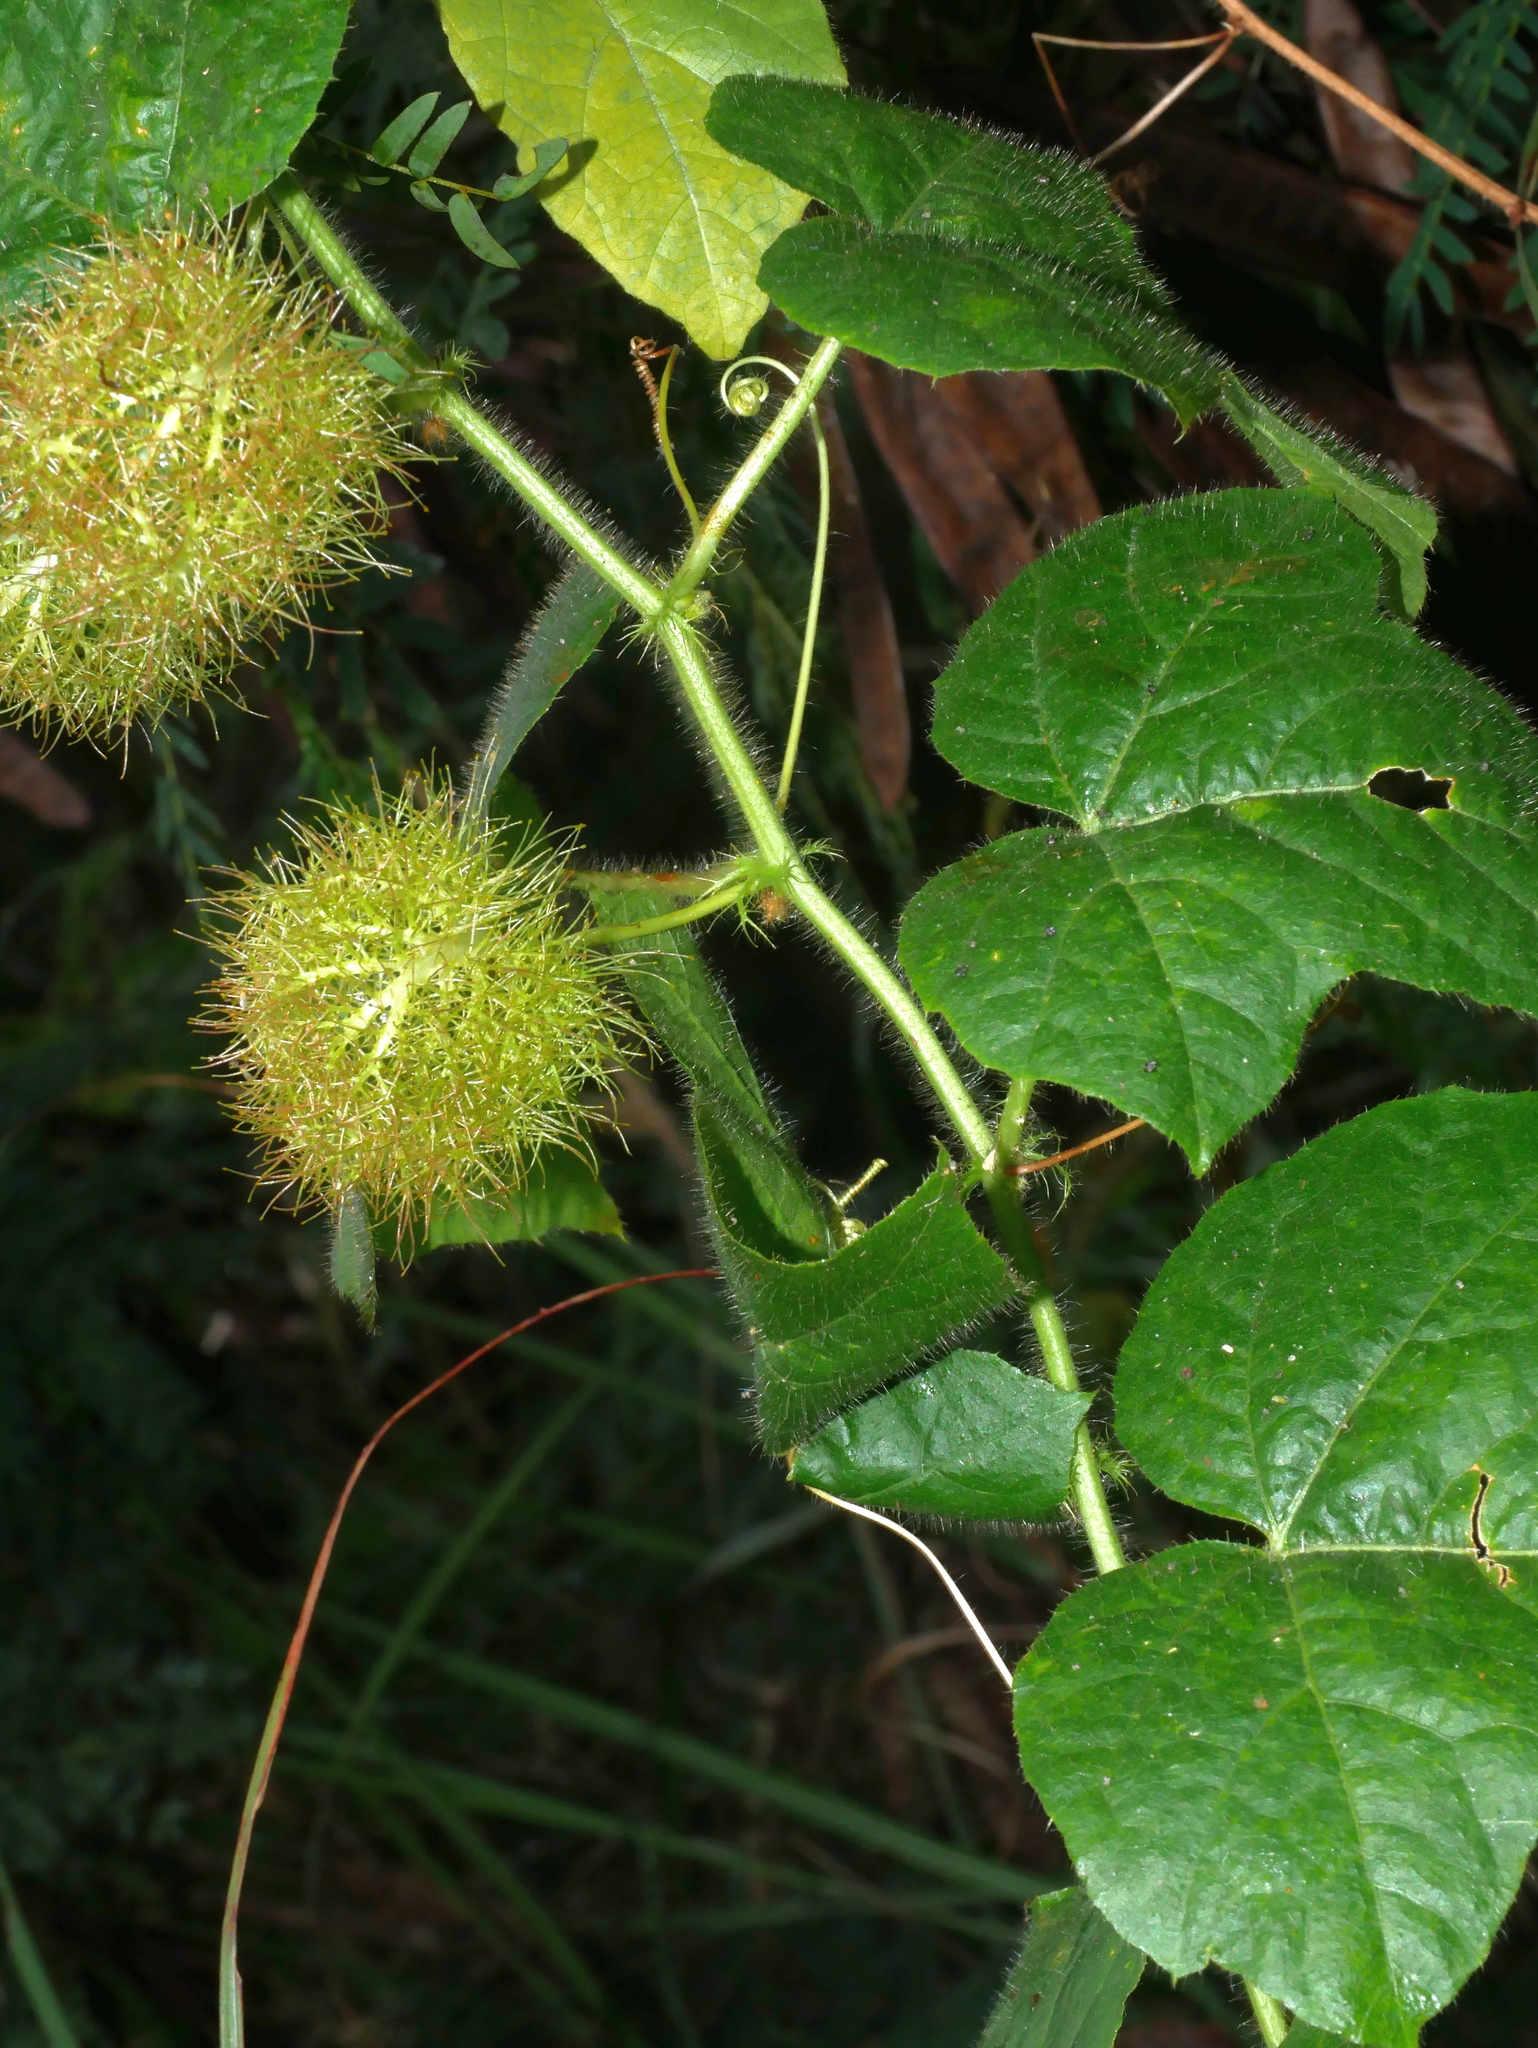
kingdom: Plantae
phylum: Tracheophyta
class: Magnoliopsida
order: Malpighiales
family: Passifloraceae
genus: Passiflora
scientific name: Passiflora vesicaria
